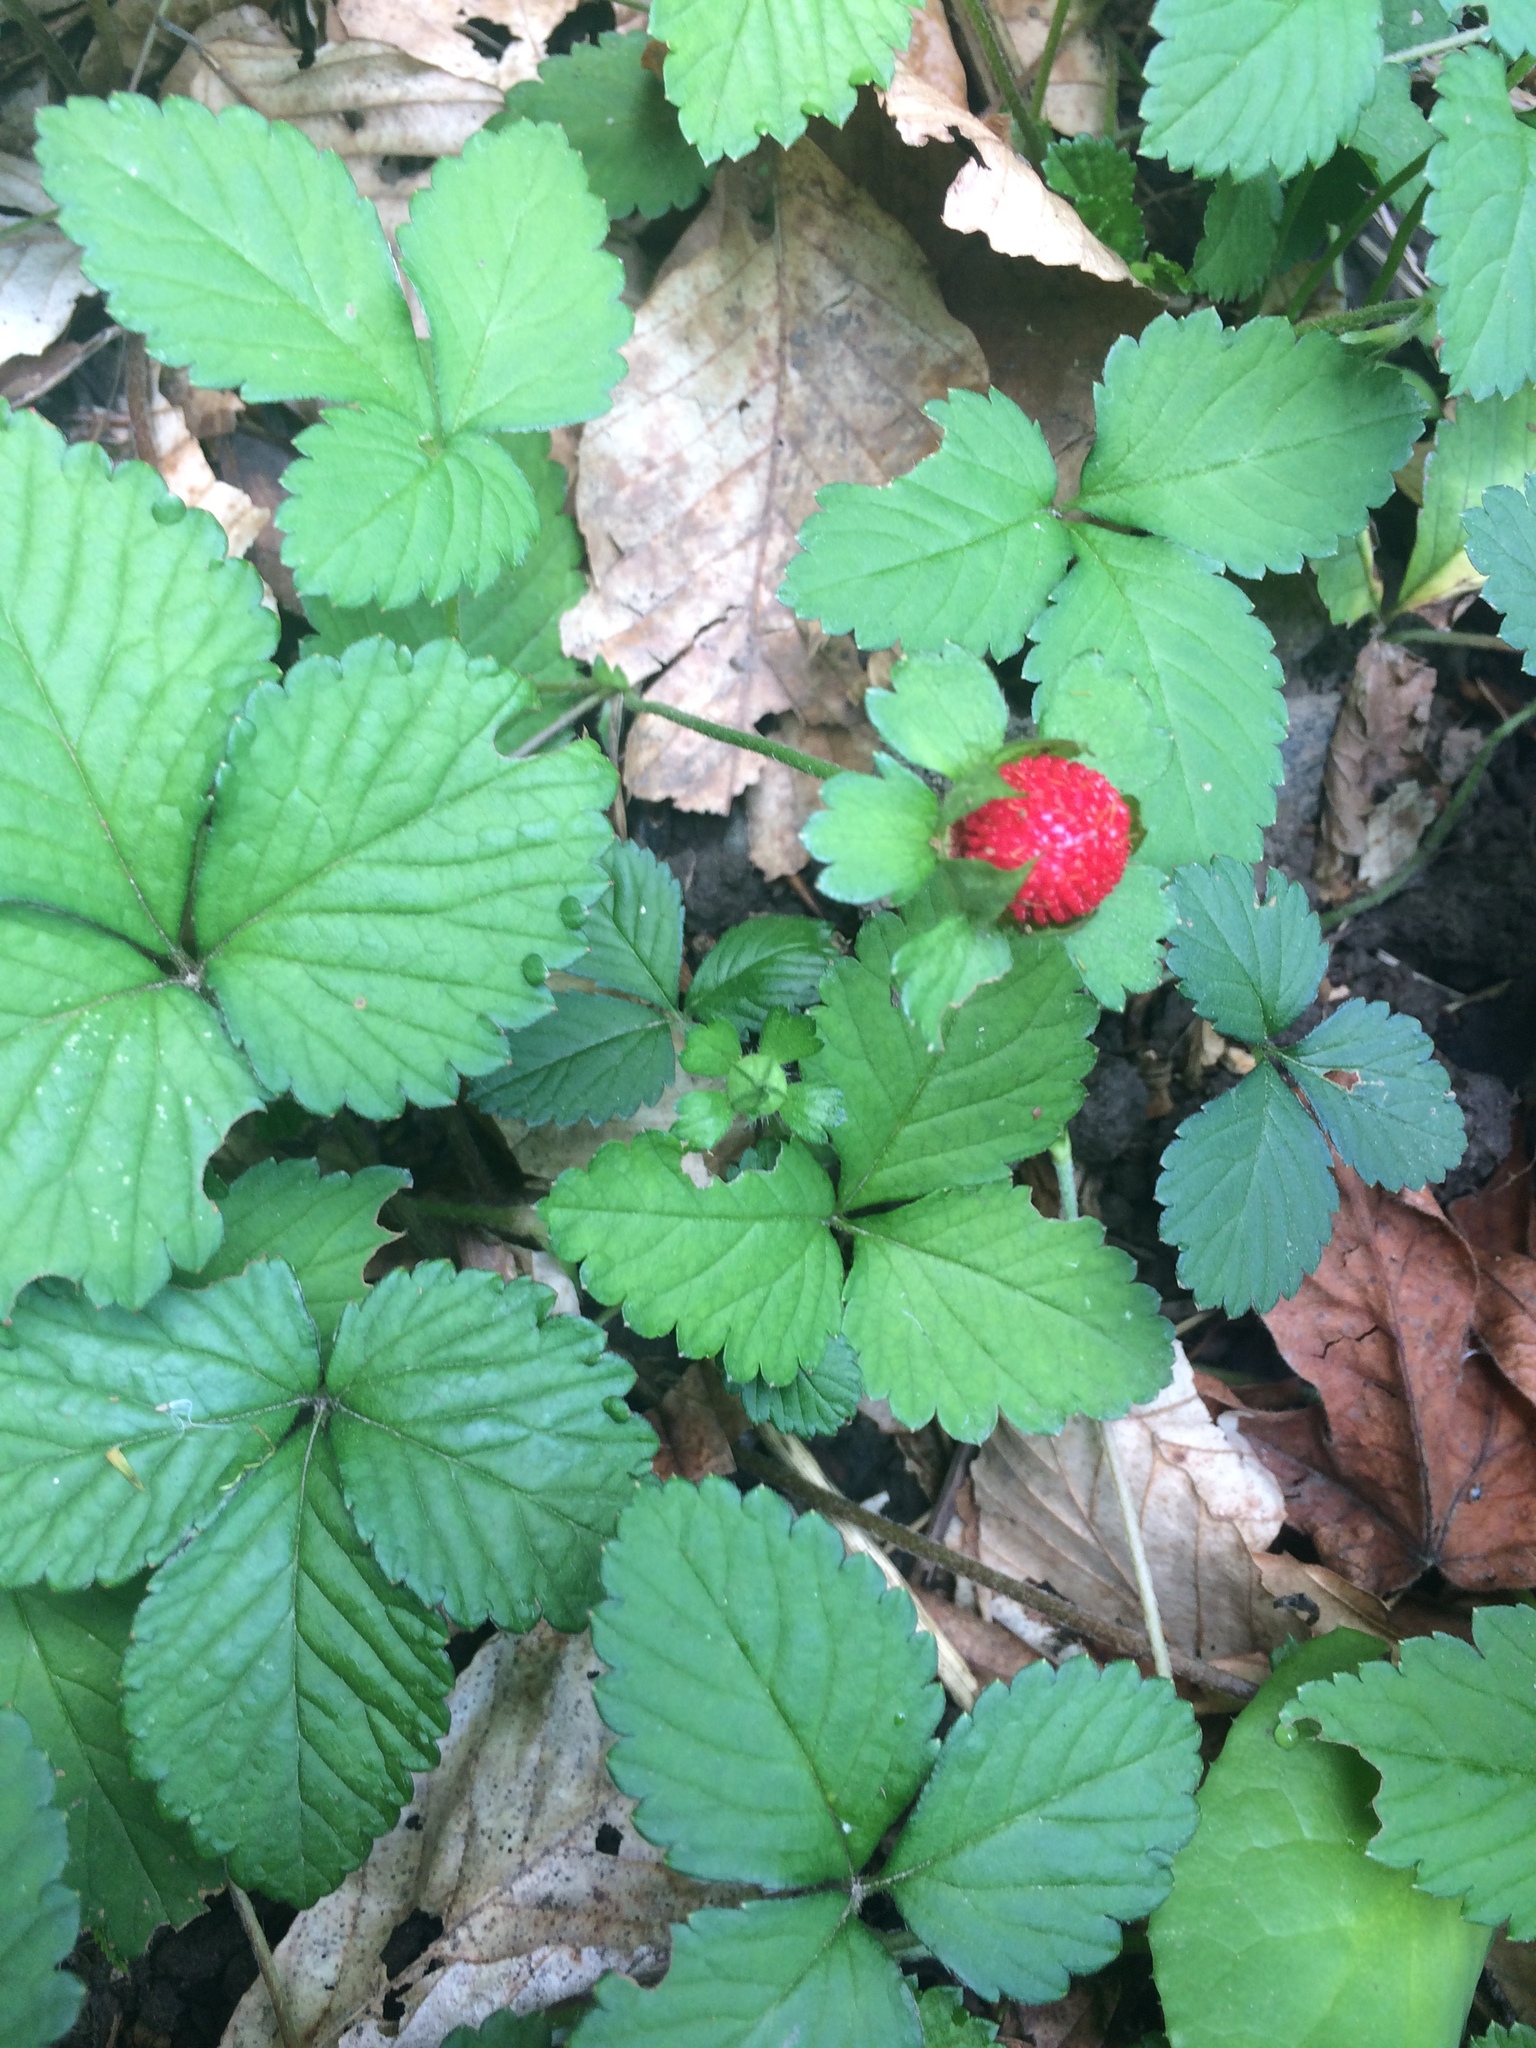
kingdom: Plantae
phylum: Tracheophyta
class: Magnoliopsida
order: Rosales
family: Rosaceae
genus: Potentilla
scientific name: Potentilla indica
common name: Yellow-flowered strawberry
